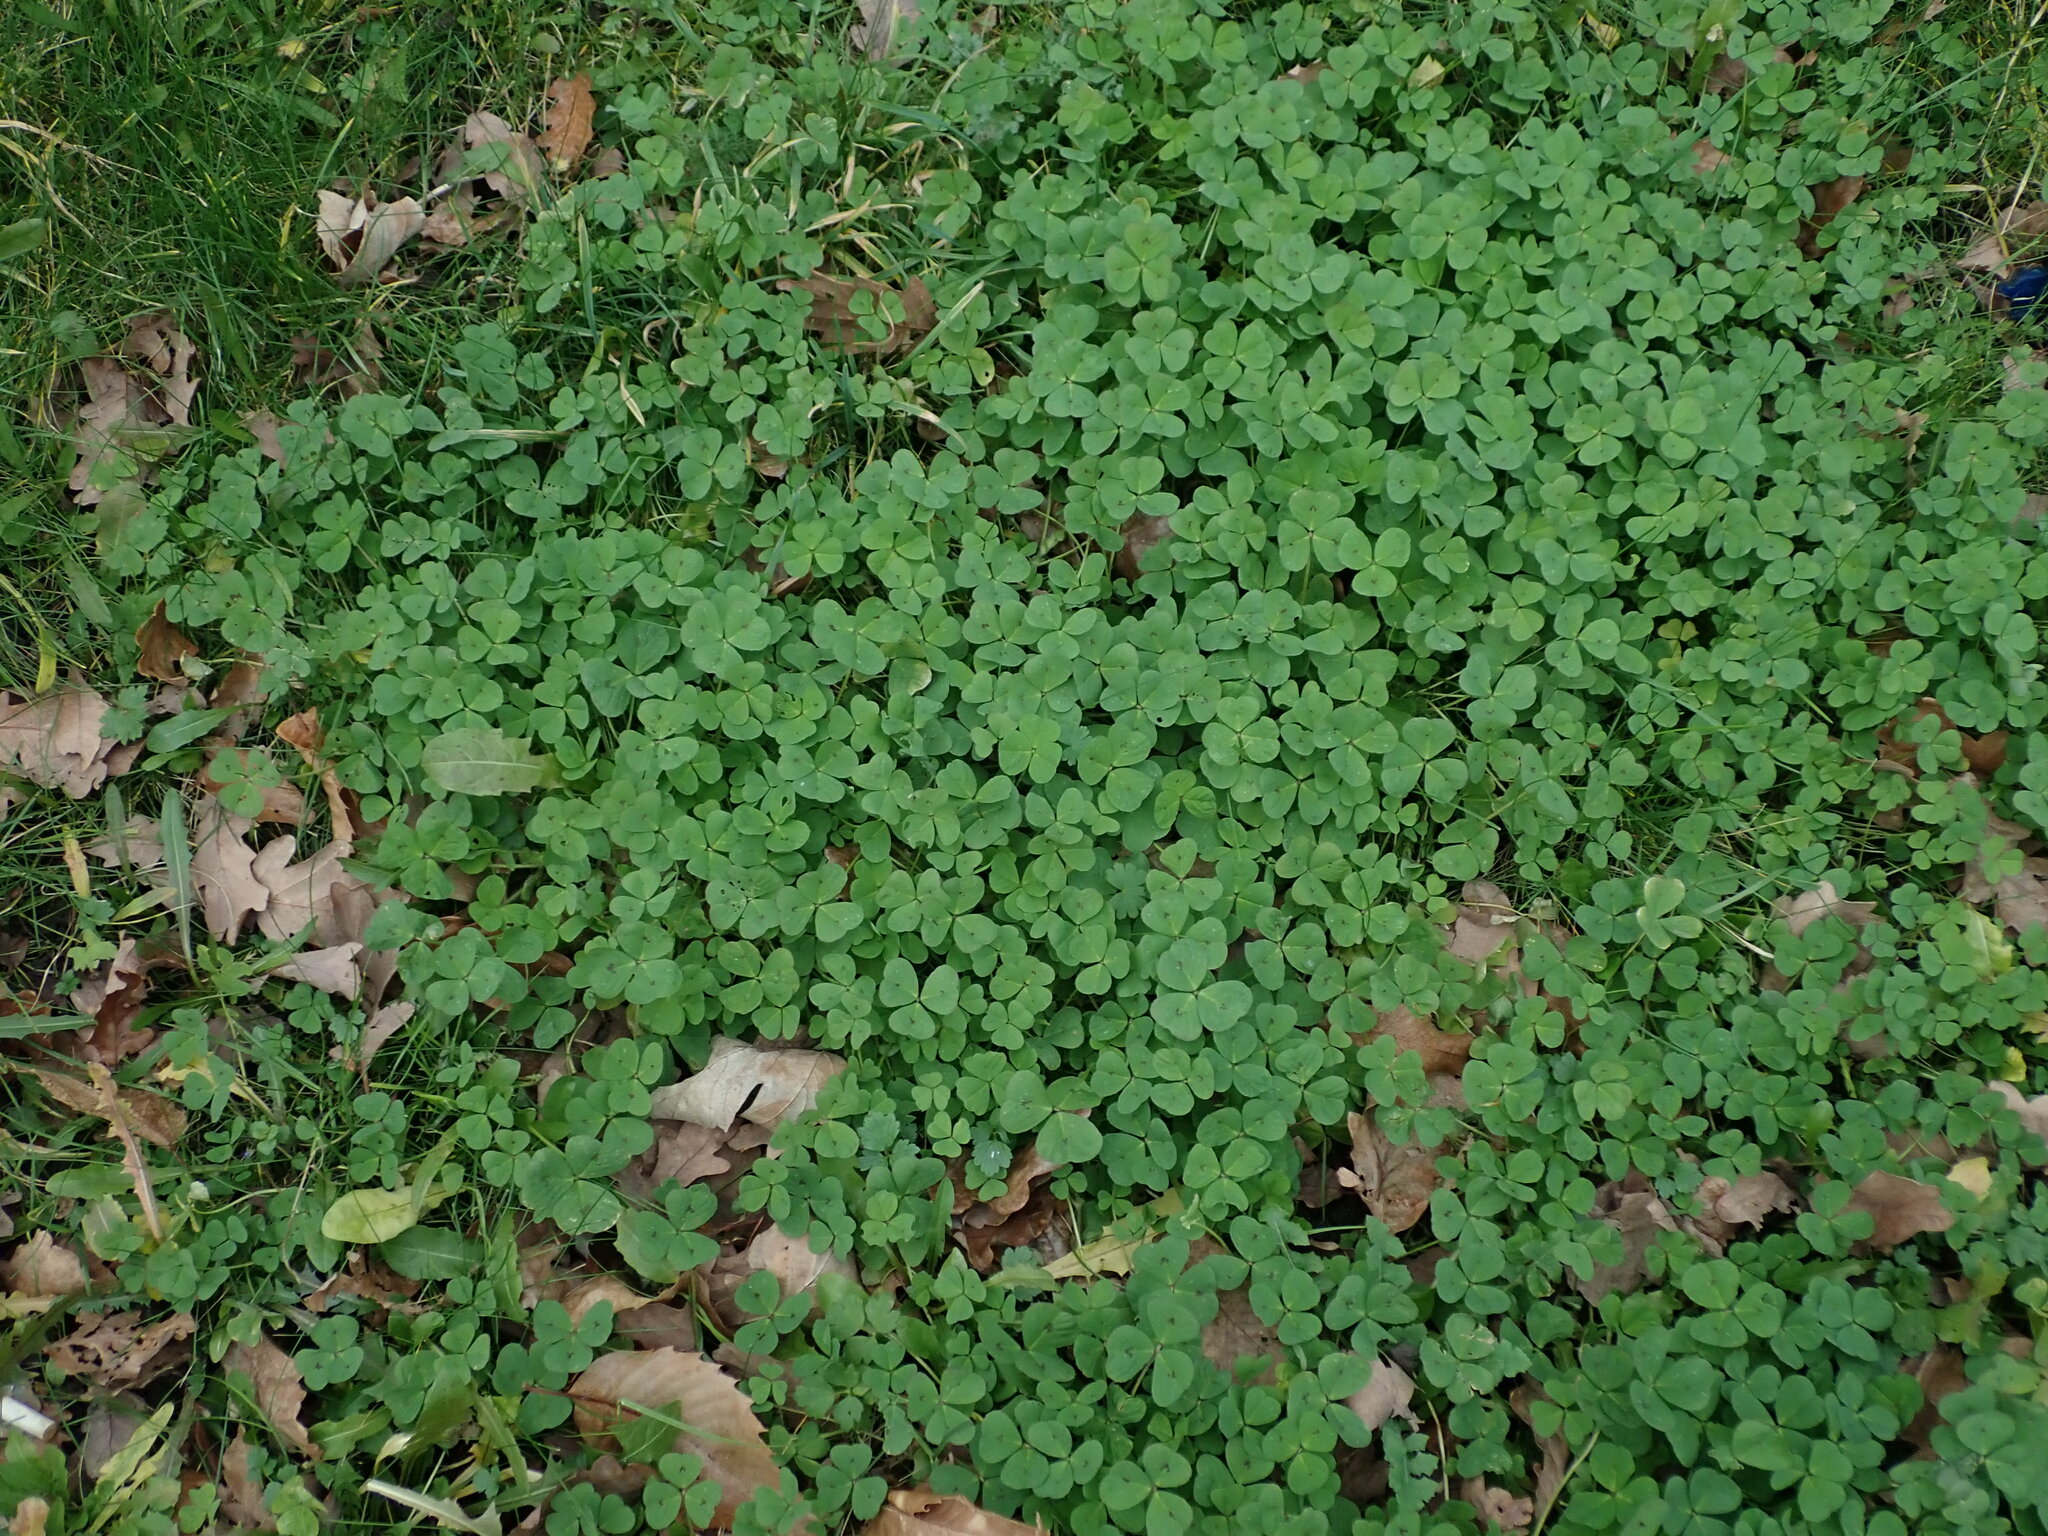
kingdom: Plantae
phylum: Tracheophyta
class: Magnoliopsida
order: Fabales
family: Fabaceae
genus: Medicago
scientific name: Medicago arabica
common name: Spotted medick
